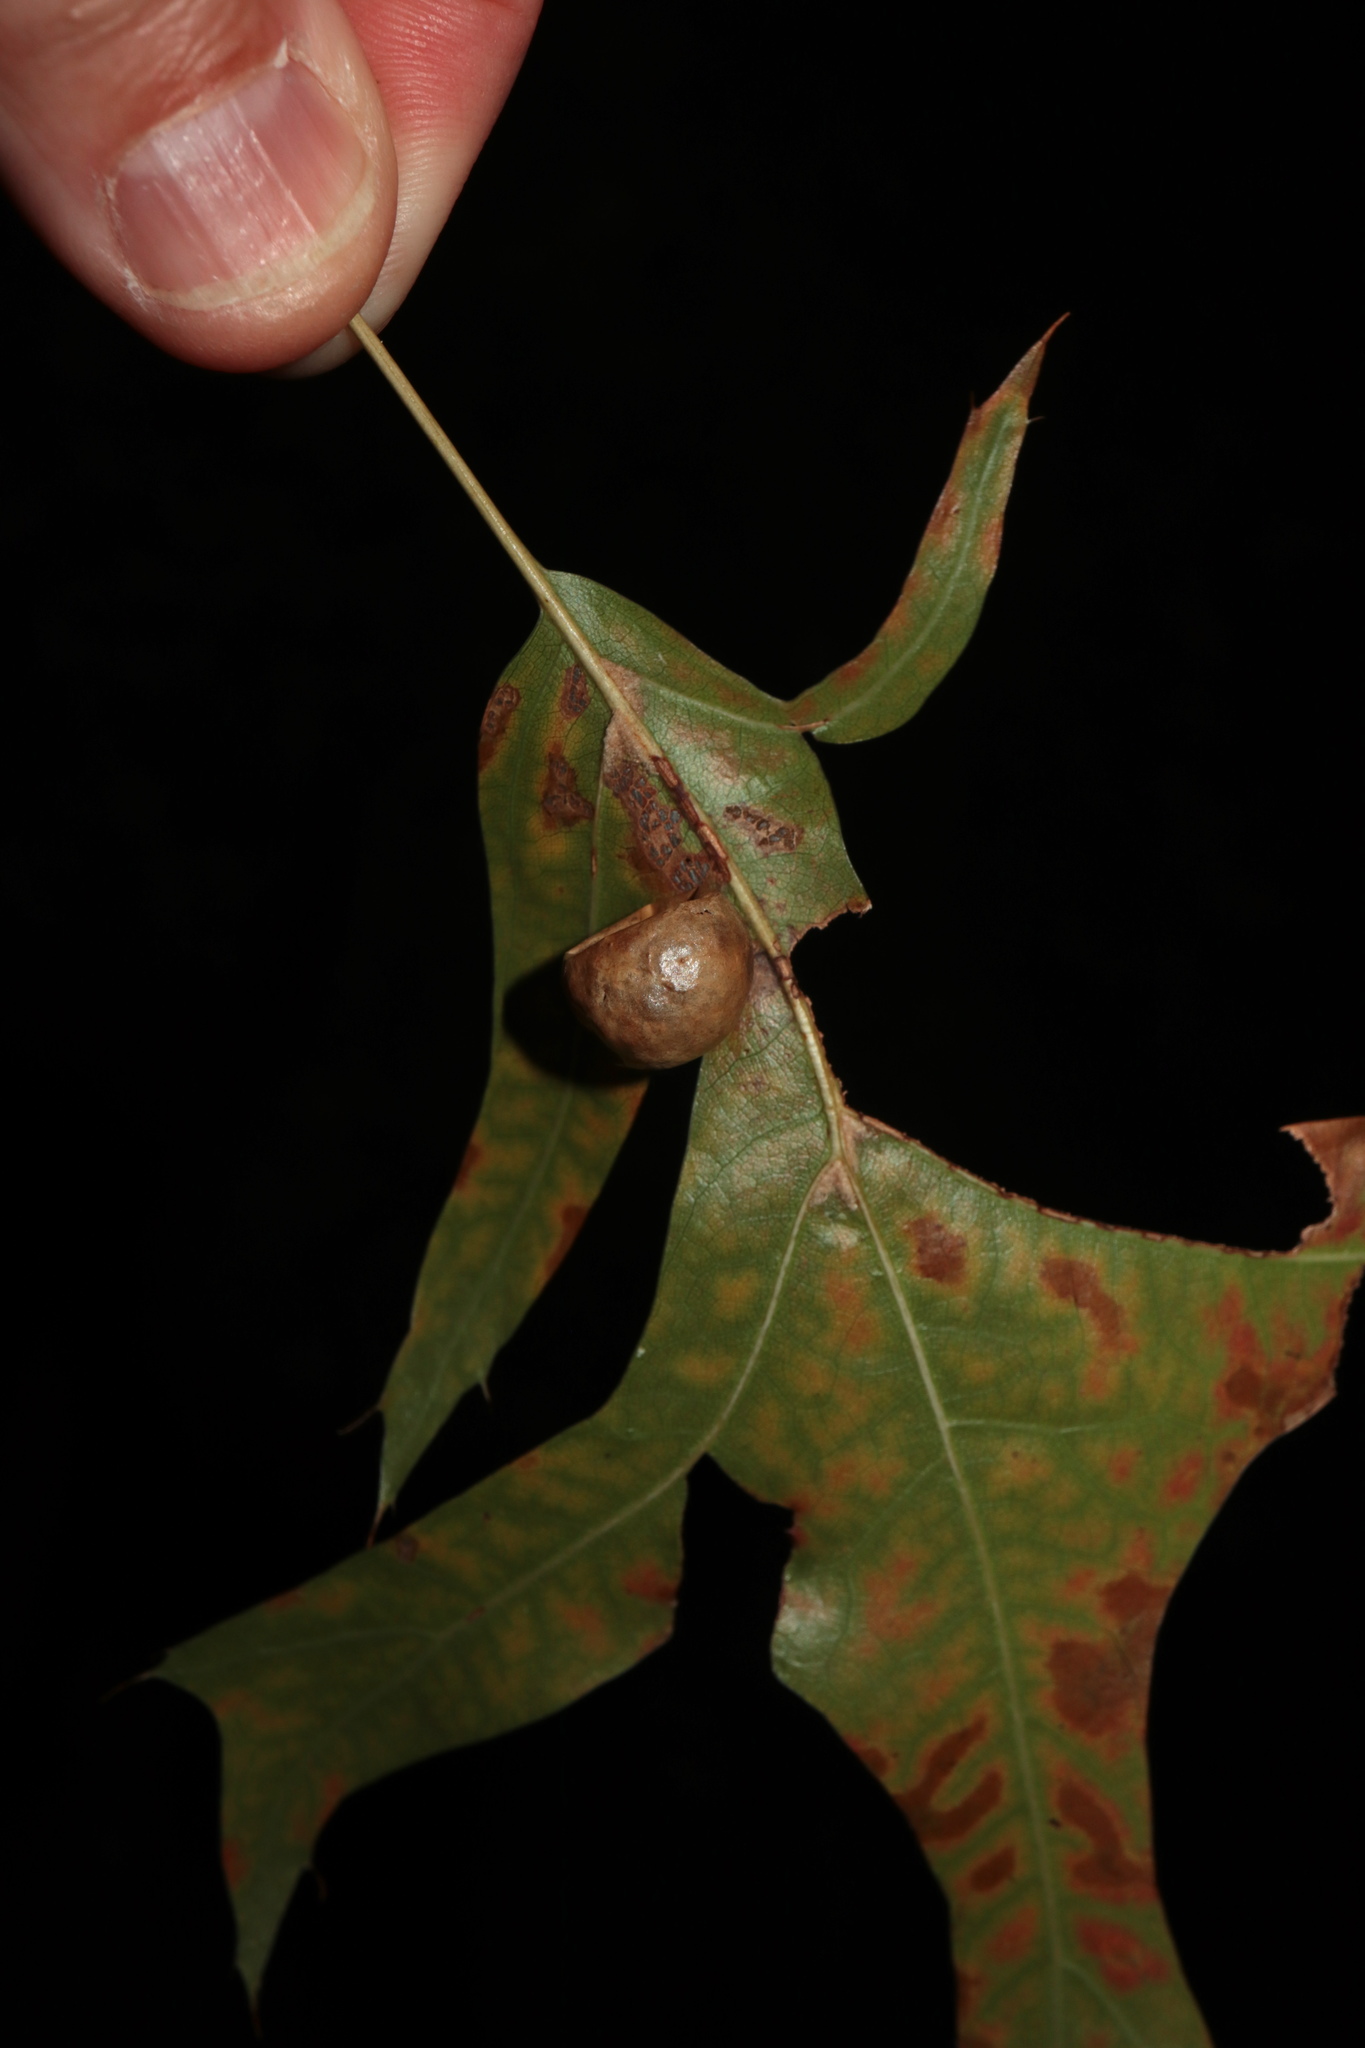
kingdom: Animalia
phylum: Arthropoda
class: Insecta
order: Hymenoptera
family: Cynipidae
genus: Amphibolips
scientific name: Amphibolips
